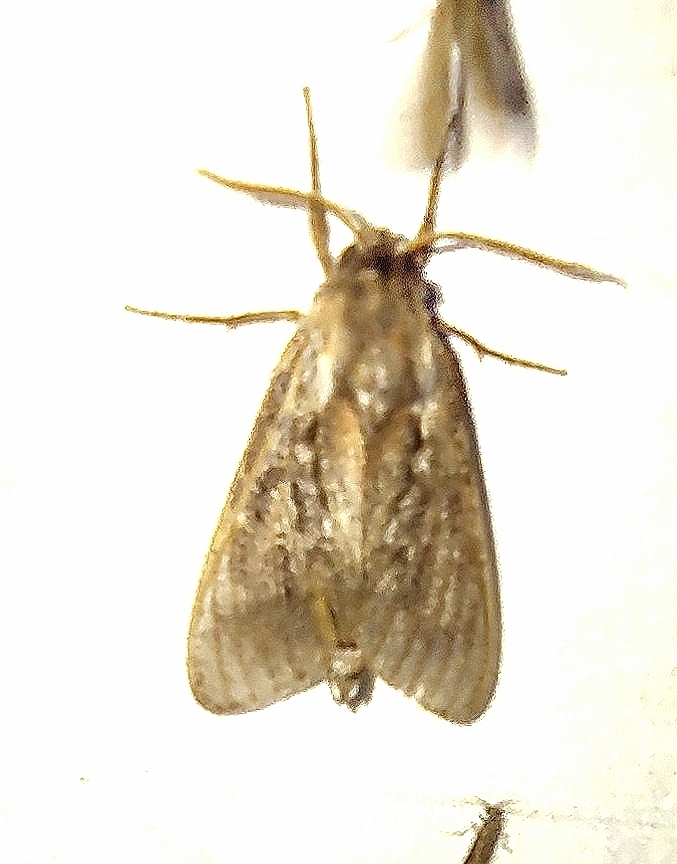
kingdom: Animalia
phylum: Arthropoda
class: Insecta
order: Lepidoptera
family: Sphingidae
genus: Lapara
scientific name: Lapara bombycoides
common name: Northern pine sphinx
